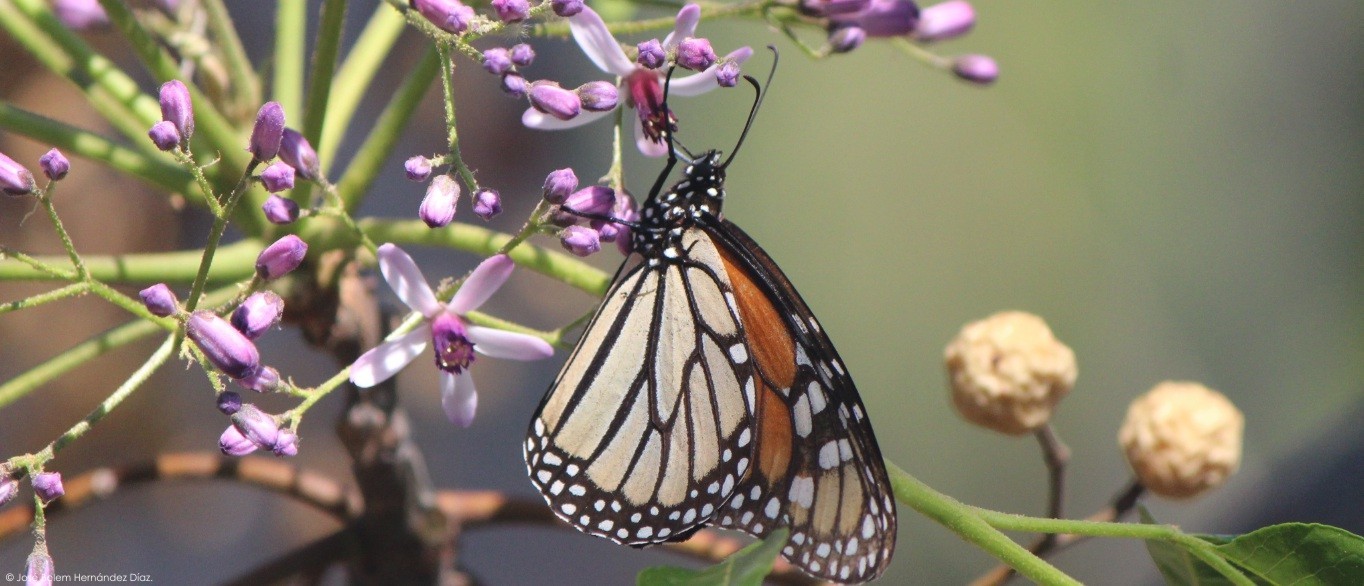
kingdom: Animalia
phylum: Arthropoda
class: Insecta
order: Lepidoptera
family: Nymphalidae
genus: Danaus
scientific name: Danaus plexippus
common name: Monarch
